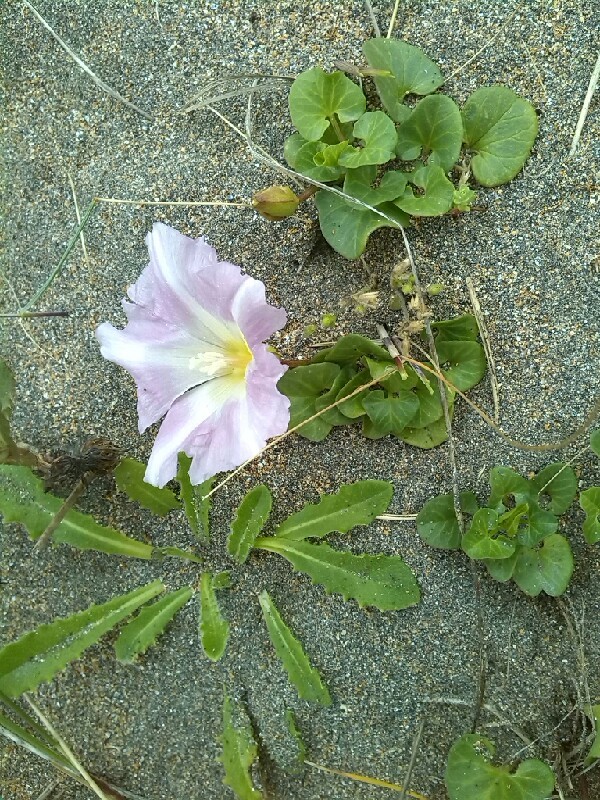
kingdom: Plantae
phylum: Tracheophyta
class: Magnoliopsida
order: Solanales
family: Convolvulaceae
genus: Calystegia
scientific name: Calystegia soldanella
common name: Sea bindweed
